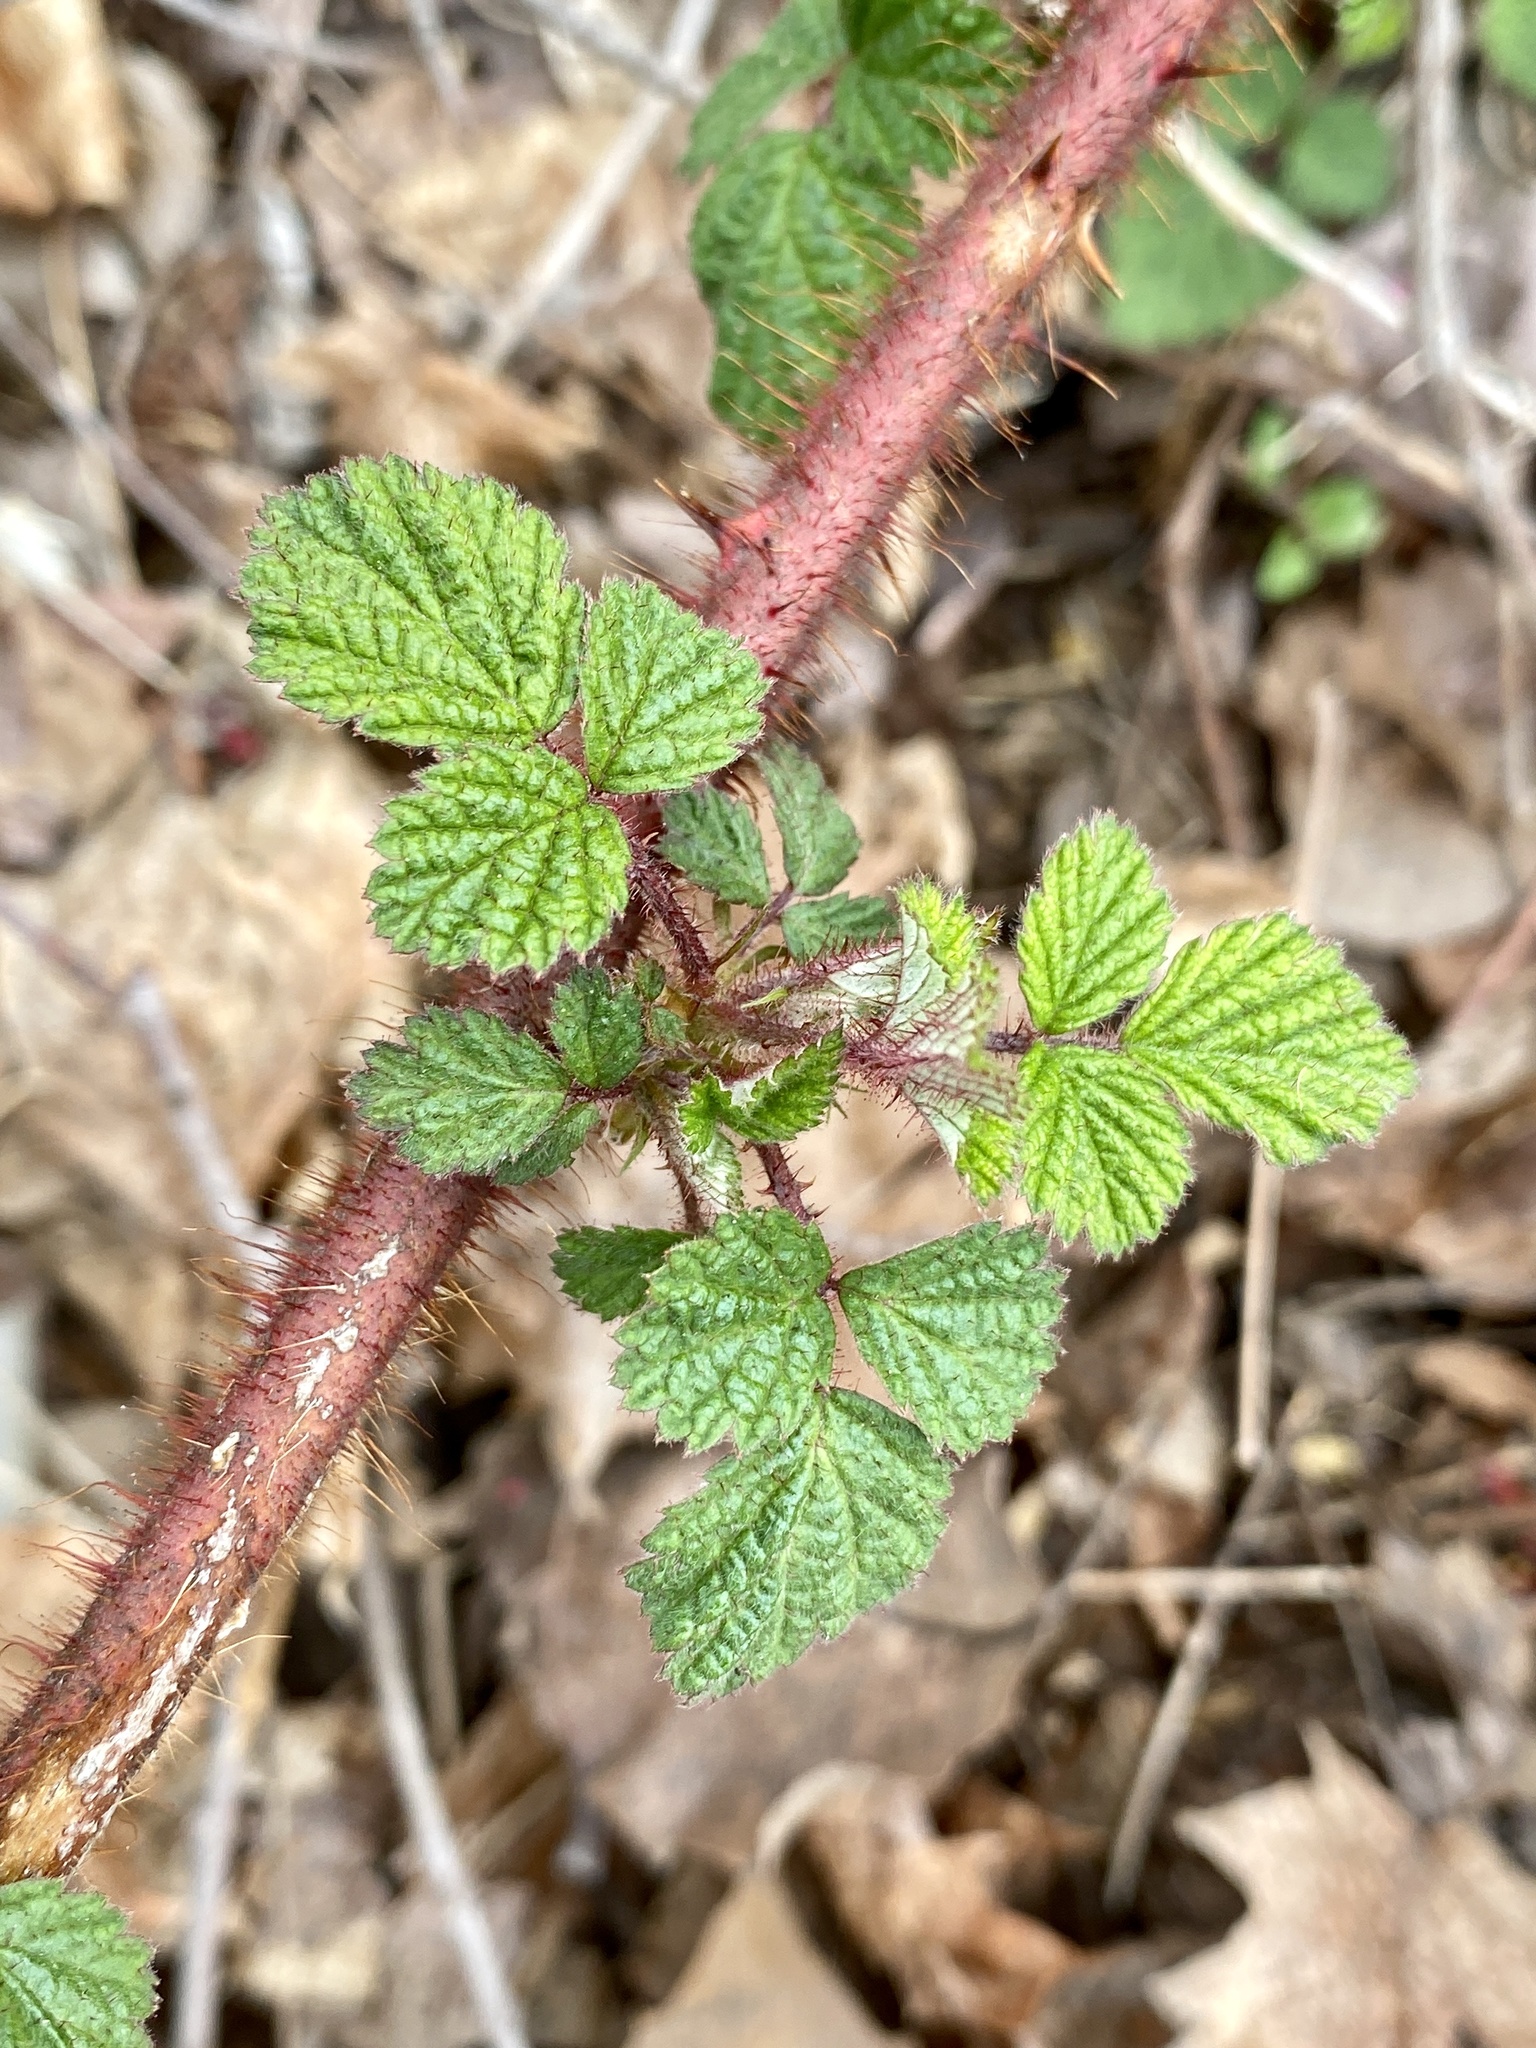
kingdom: Plantae
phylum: Tracheophyta
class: Magnoliopsida
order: Rosales
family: Rosaceae
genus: Rubus
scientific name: Rubus phoenicolasius
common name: Japanese wineberry
